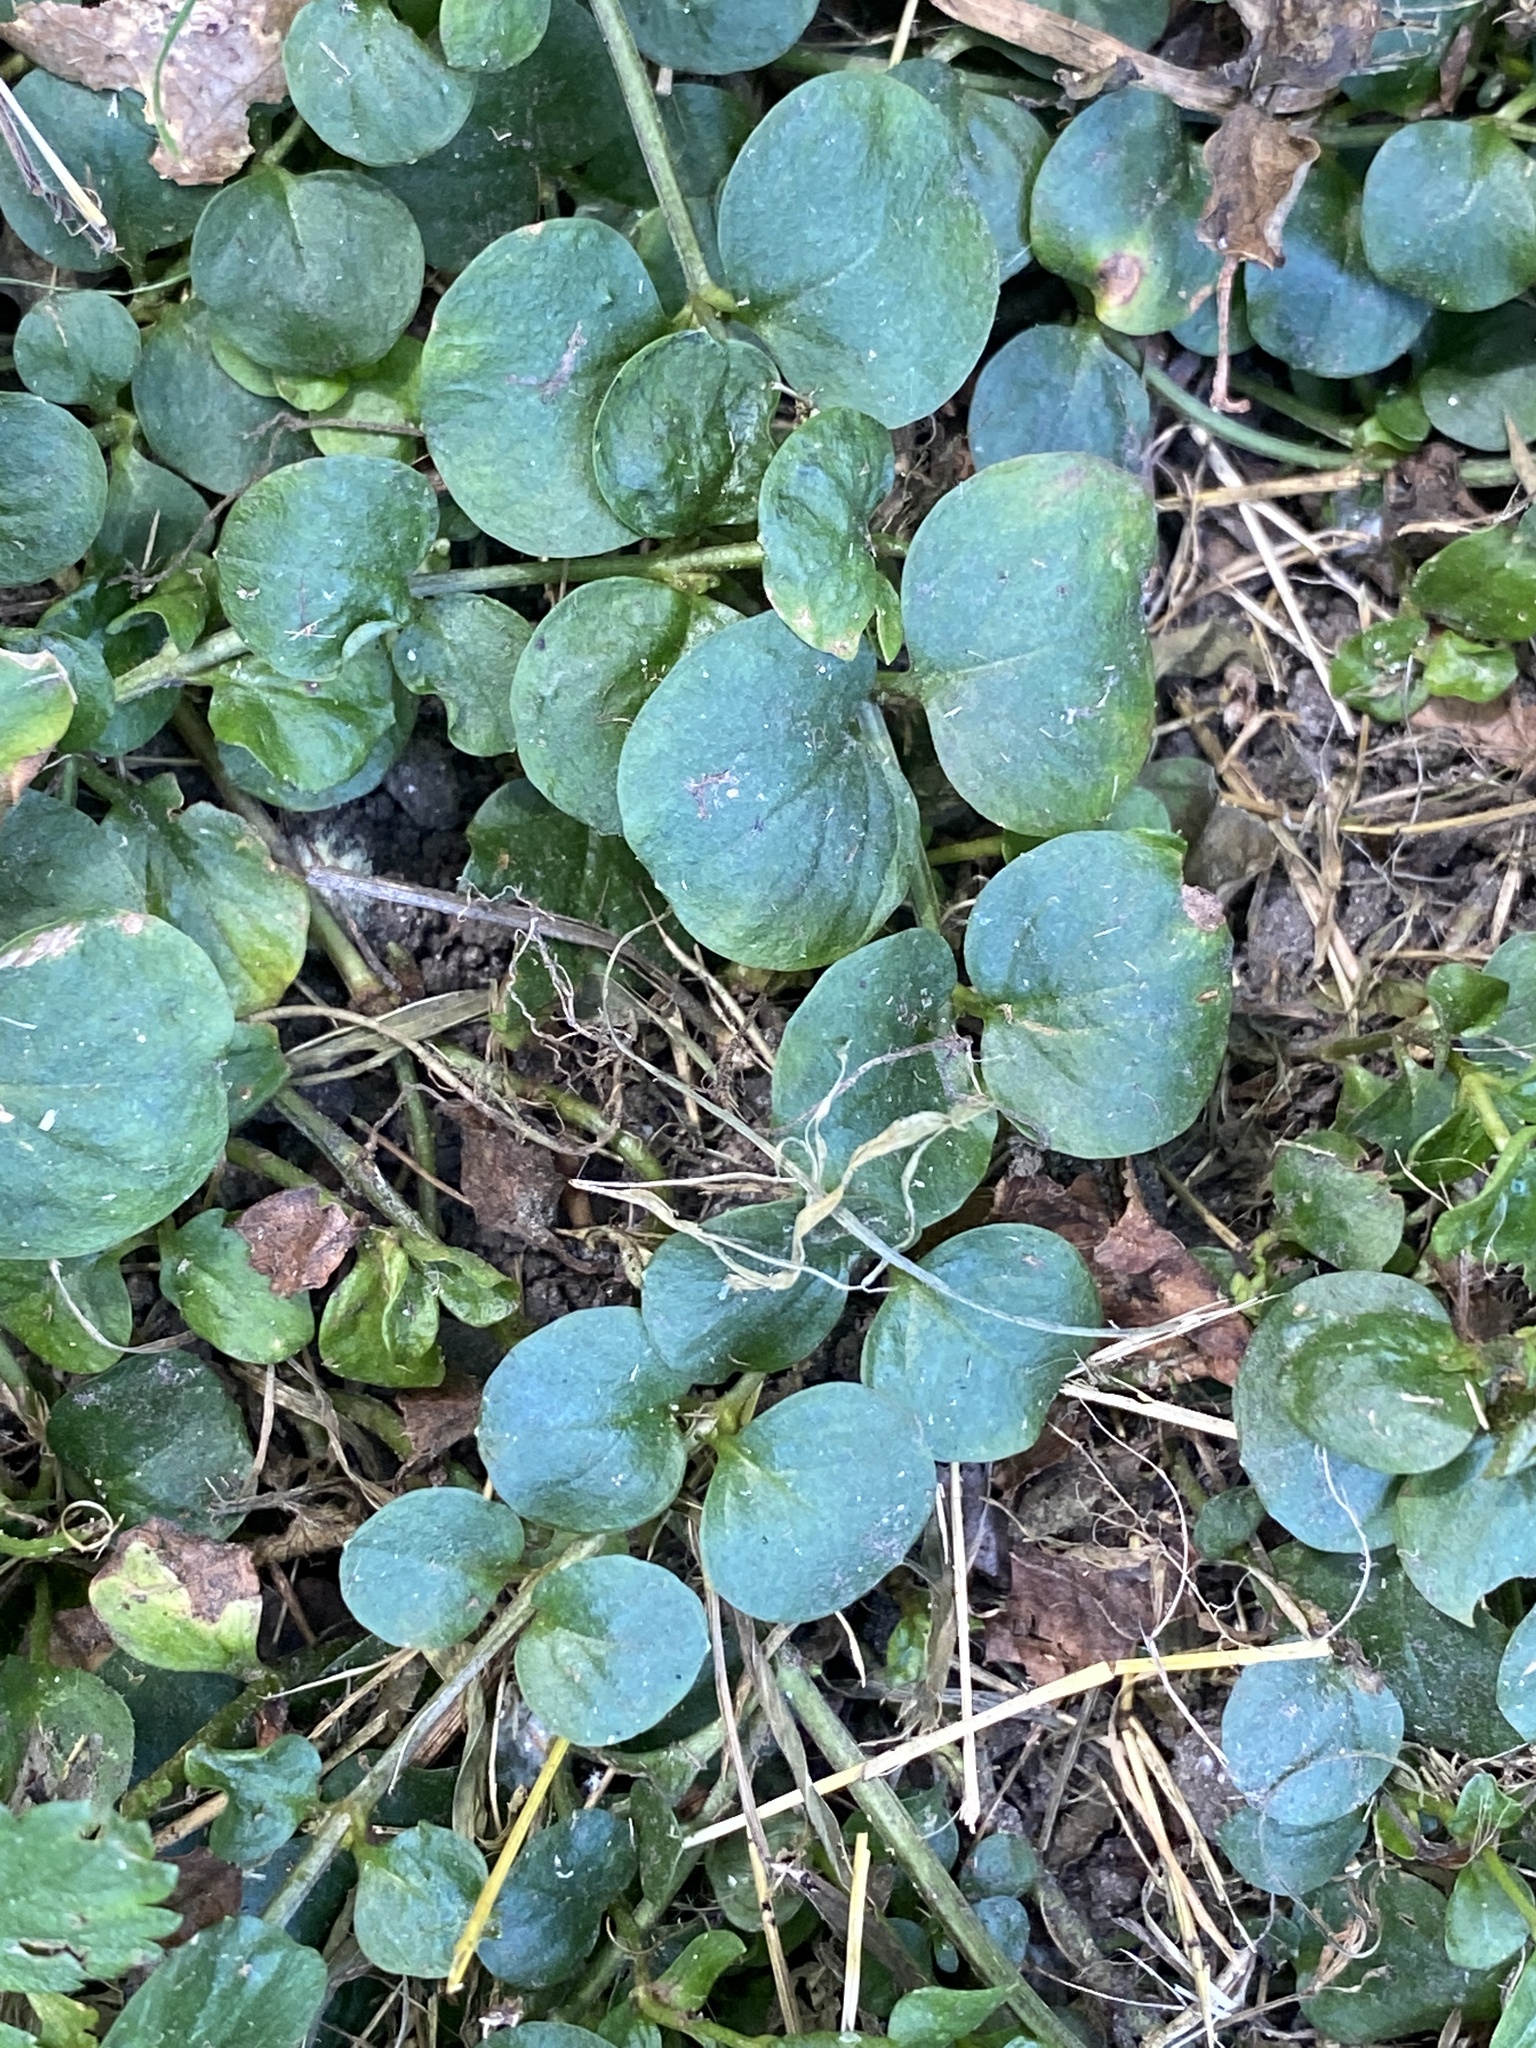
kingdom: Plantae
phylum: Tracheophyta
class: Magnoliopsida
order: Ericales
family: Primulaceae
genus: Lysimachia
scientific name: Lysimachia nummularia
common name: Moneywort
